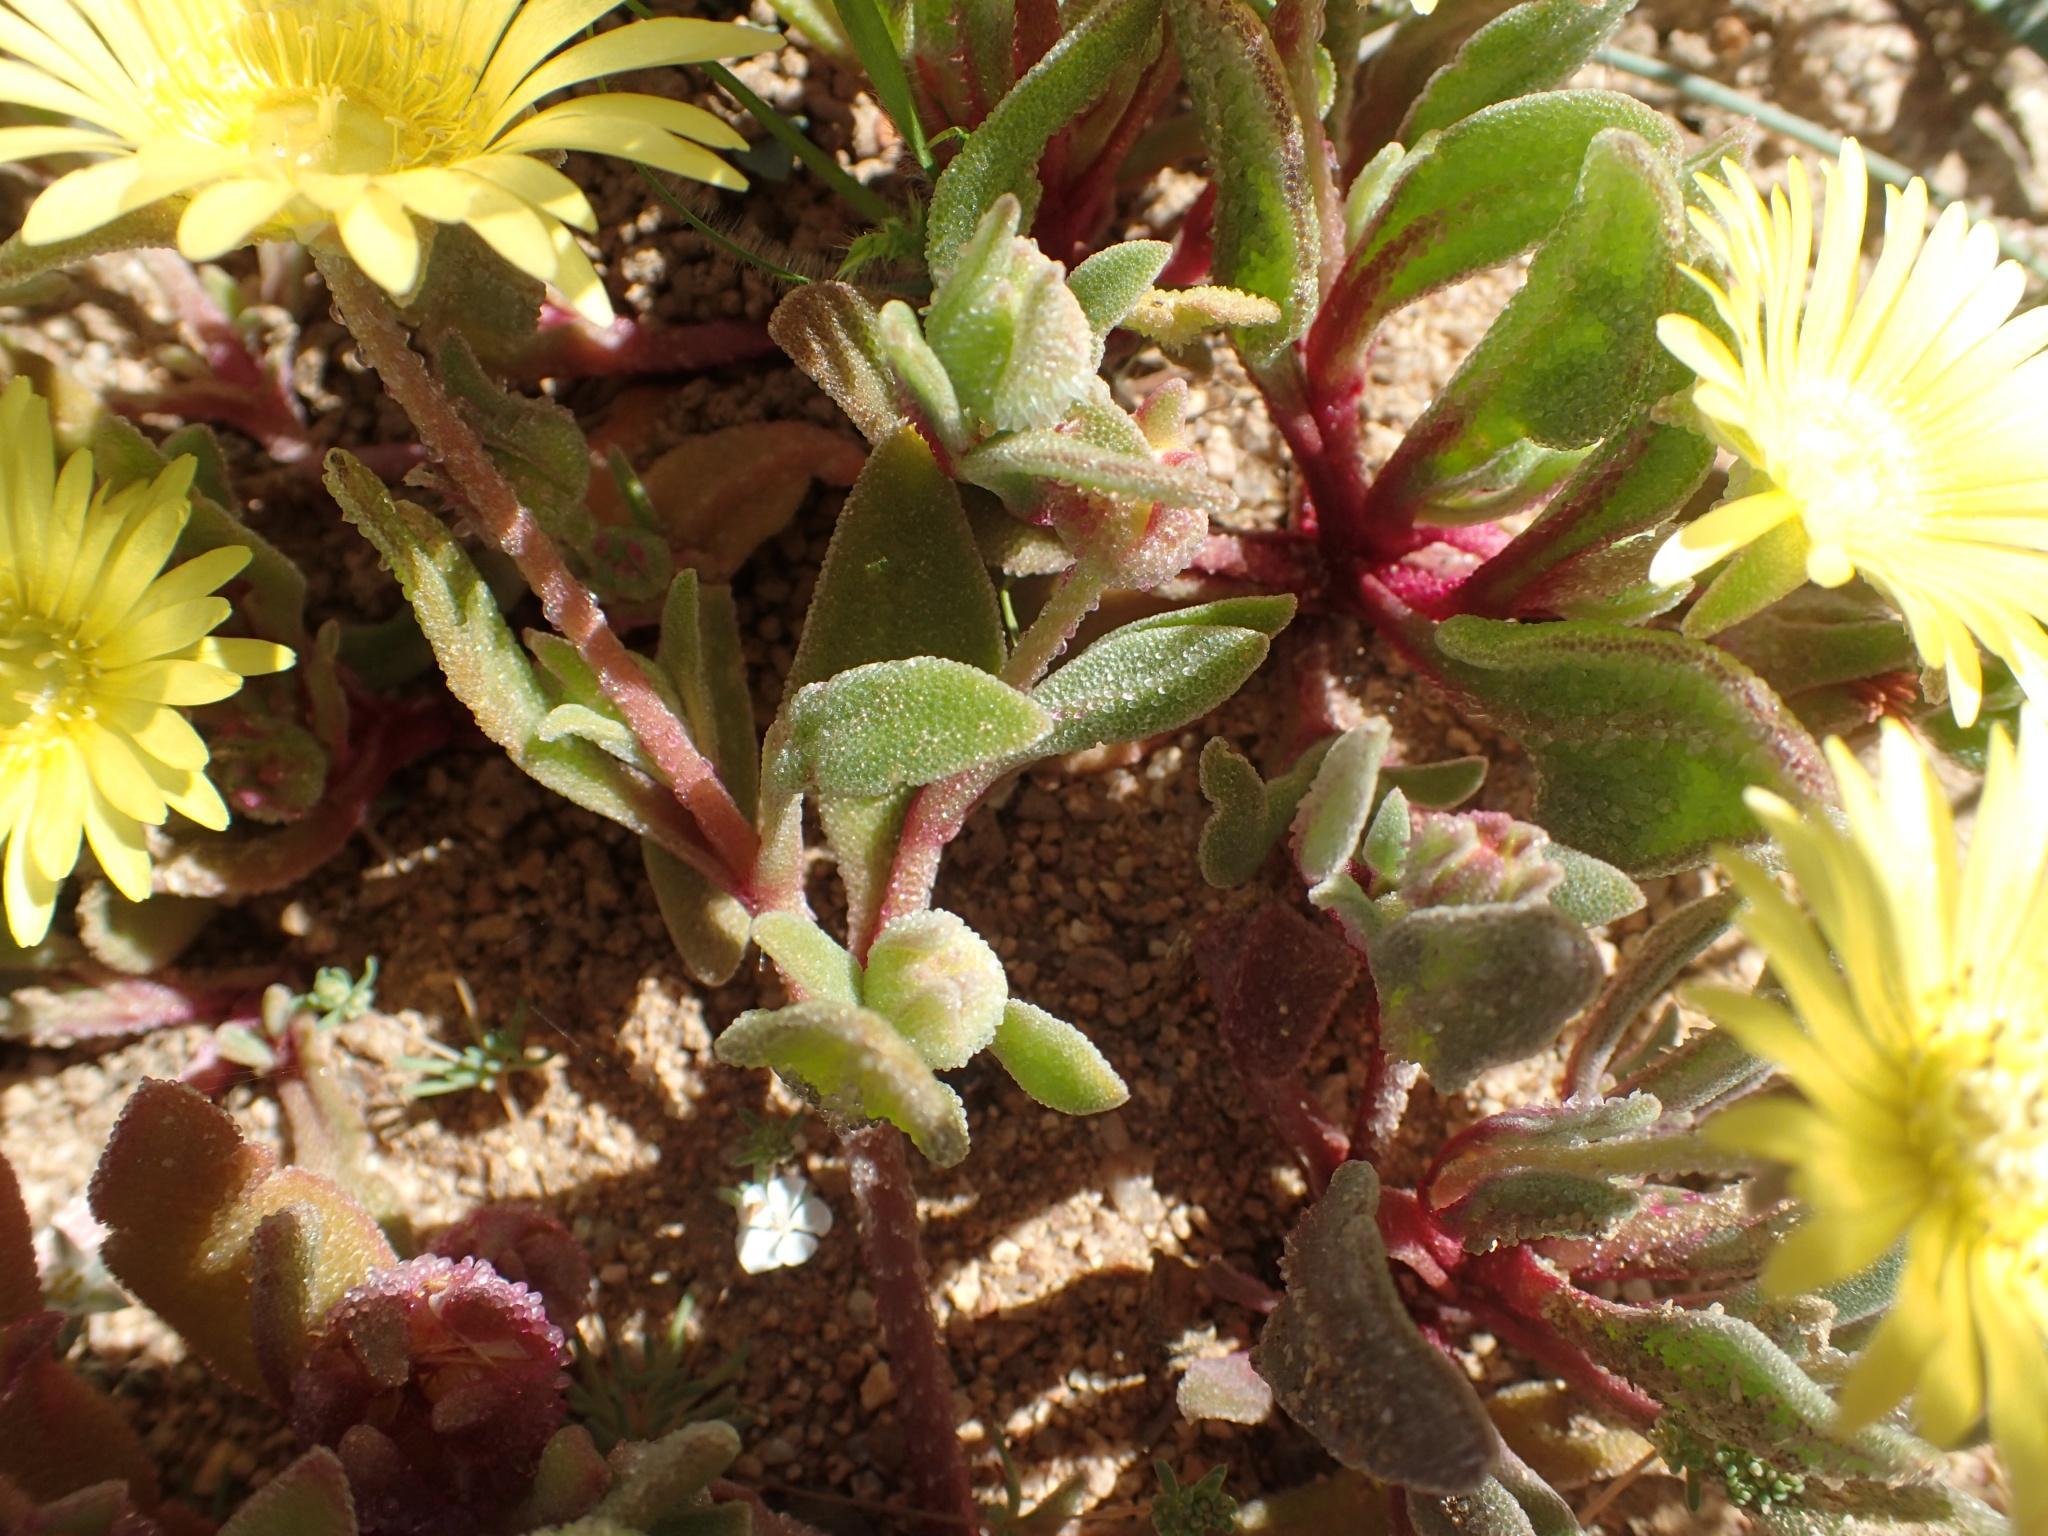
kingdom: Plantae
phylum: Tracheophyta
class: Magnoliopsida
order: Caryophyllales
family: Aizoaceae
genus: Cleretum
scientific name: Cleretum papulosum
